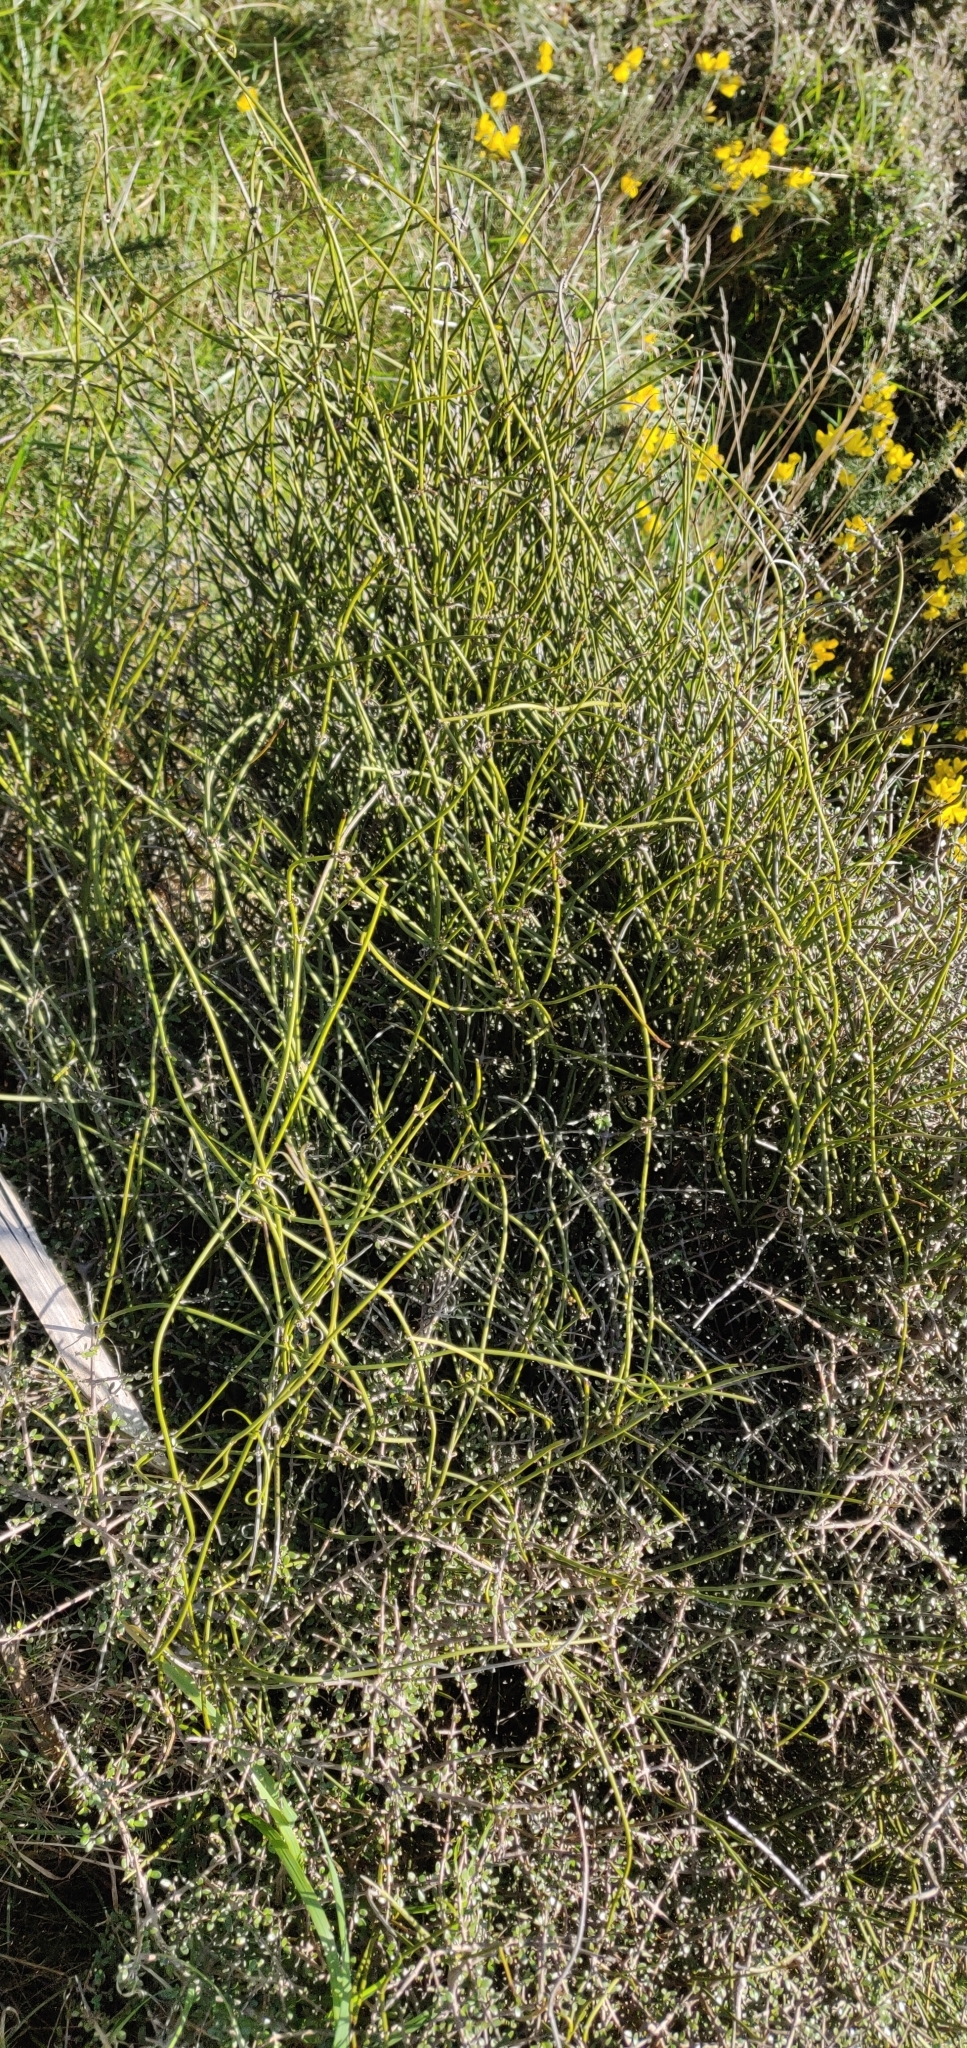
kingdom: Plantae
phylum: Tracheophyta
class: Magnoliopsida
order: Ranunculales
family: Ranunculaceae
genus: Clematis
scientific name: Clematis afoliata
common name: Rush-stem clematis
